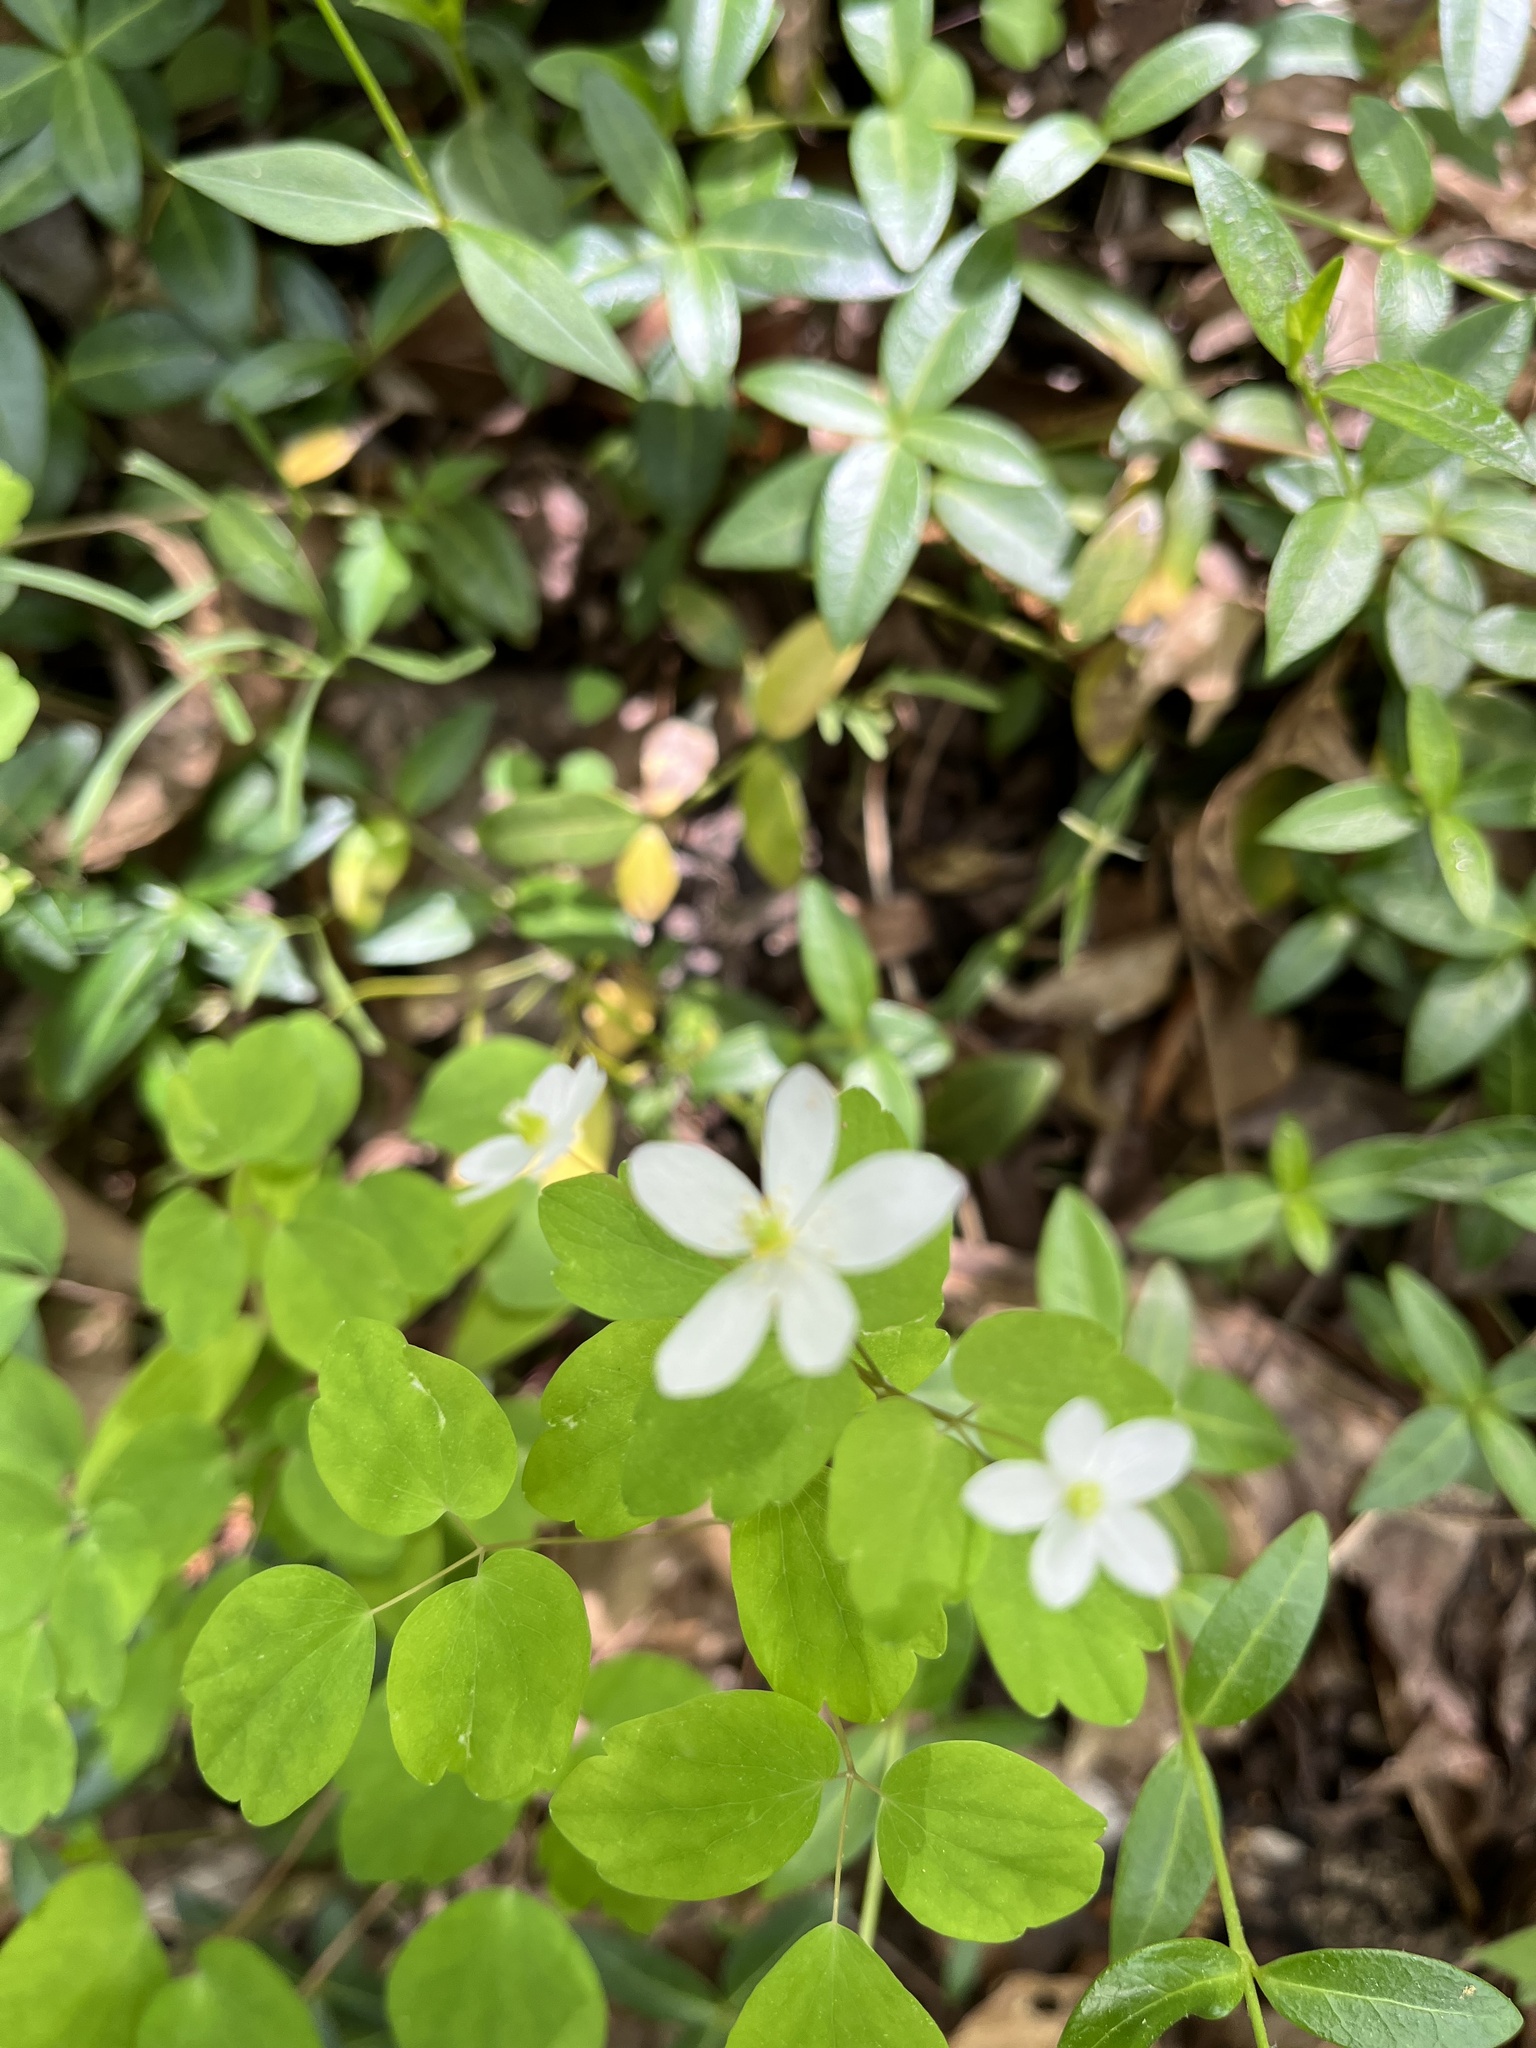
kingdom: Plantae
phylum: Tracheophyta
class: Magnoliopsida
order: Ranunculales
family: Ranunculaceae
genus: Thalictrum
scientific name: Thalictrum thalictroides
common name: Rue-anemone
